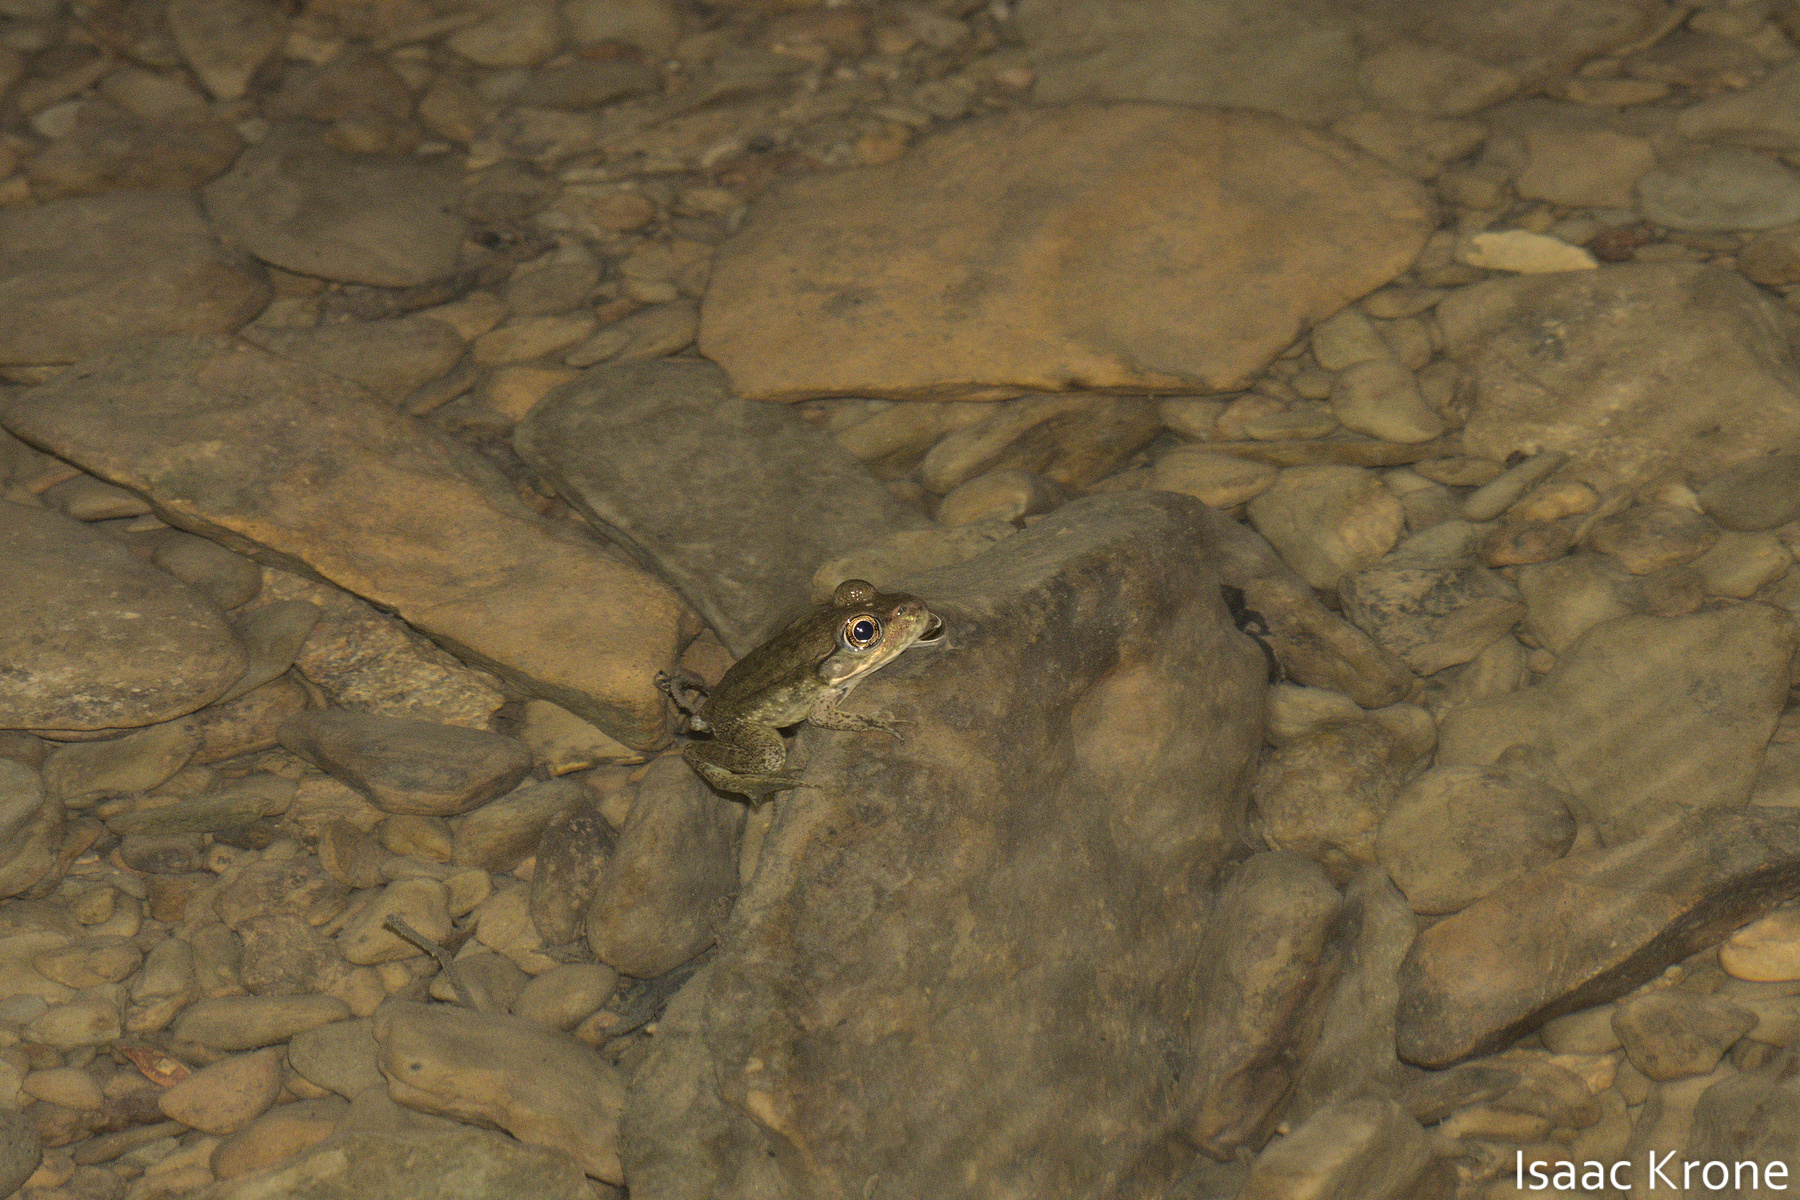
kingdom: Animalia
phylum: Chordata
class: Amphibia
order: Anura
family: Ranidae
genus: Lithobates
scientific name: Lithobates clamitans
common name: Green frog
